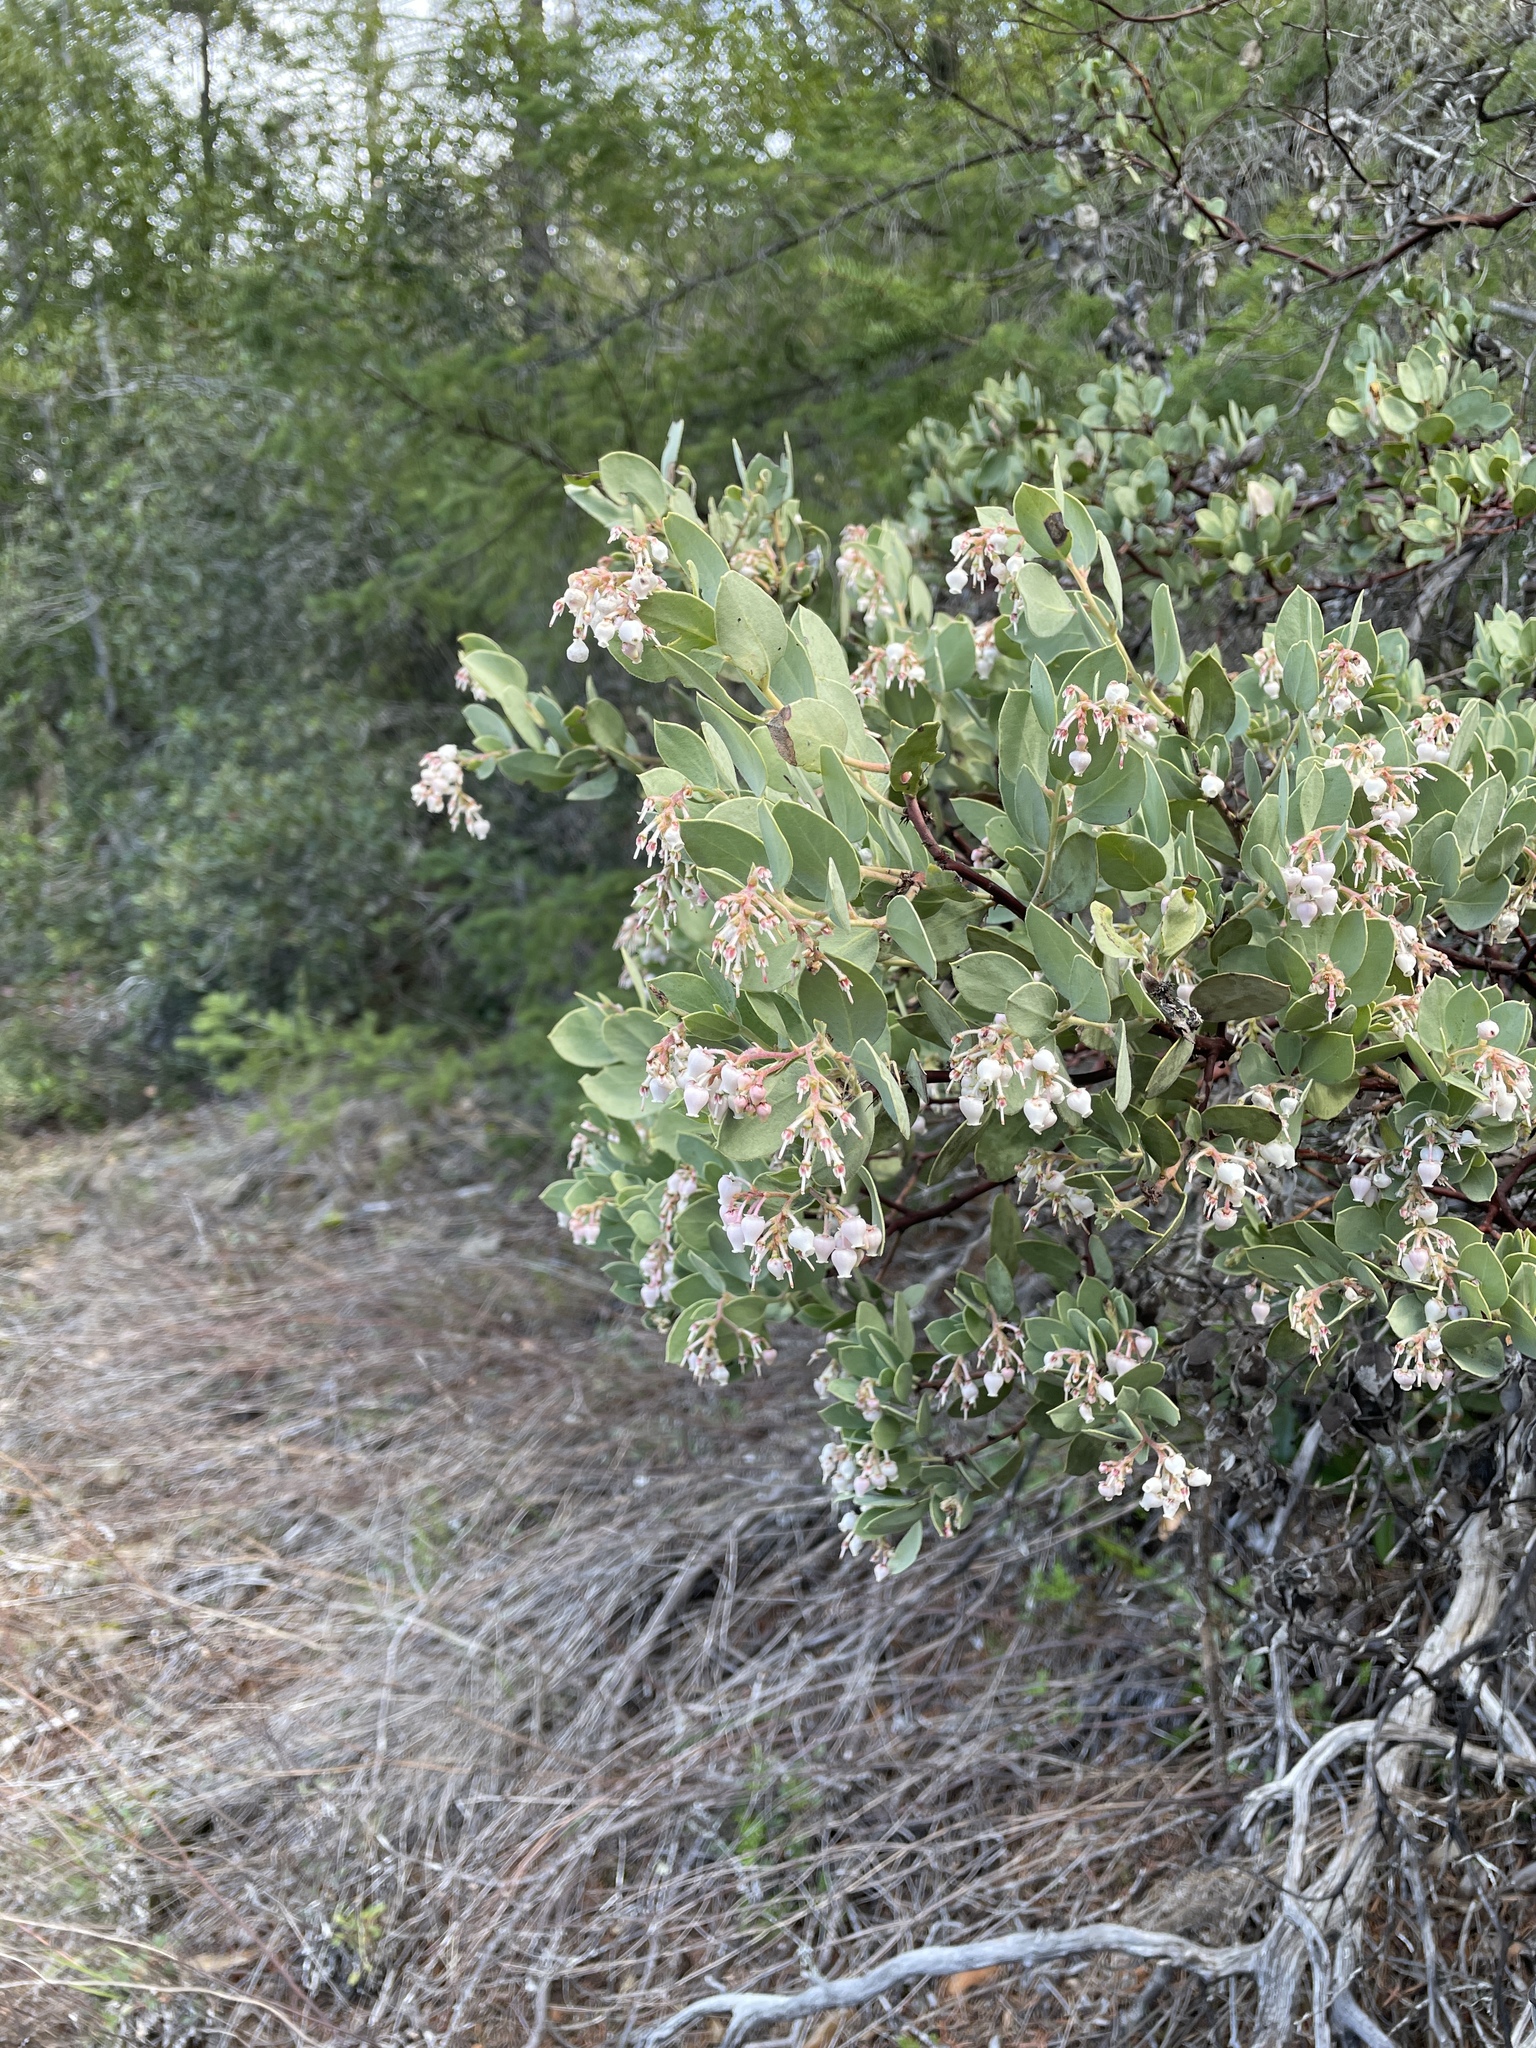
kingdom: Plantae
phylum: Tracheophyta
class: Magnoliopsida
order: Ericales
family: Ericaceae
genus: Arctostaphylos
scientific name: Arctostaphylos viscida
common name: White-leaf manzanita
